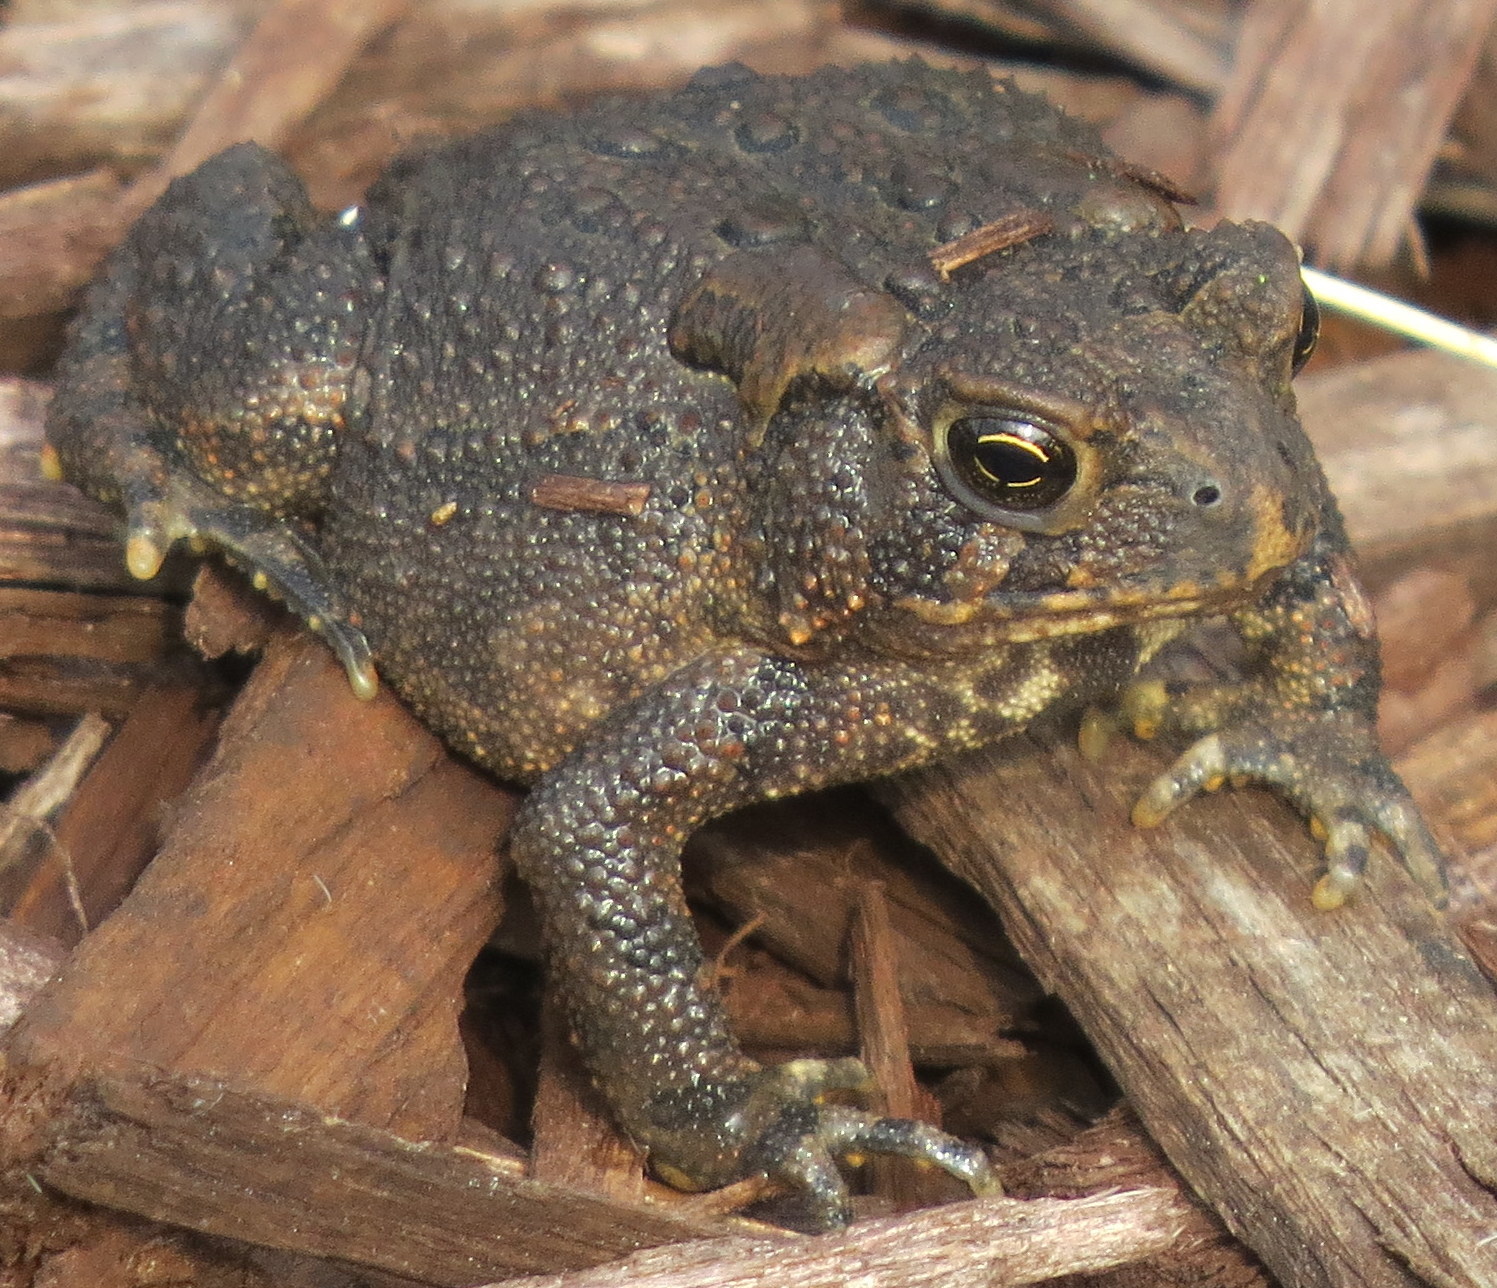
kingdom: Animalia
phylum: Chordata
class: Amphibia
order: Anura
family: Bufonidae
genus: Anaxyrus
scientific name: Anaxyrus americanus
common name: American toad
